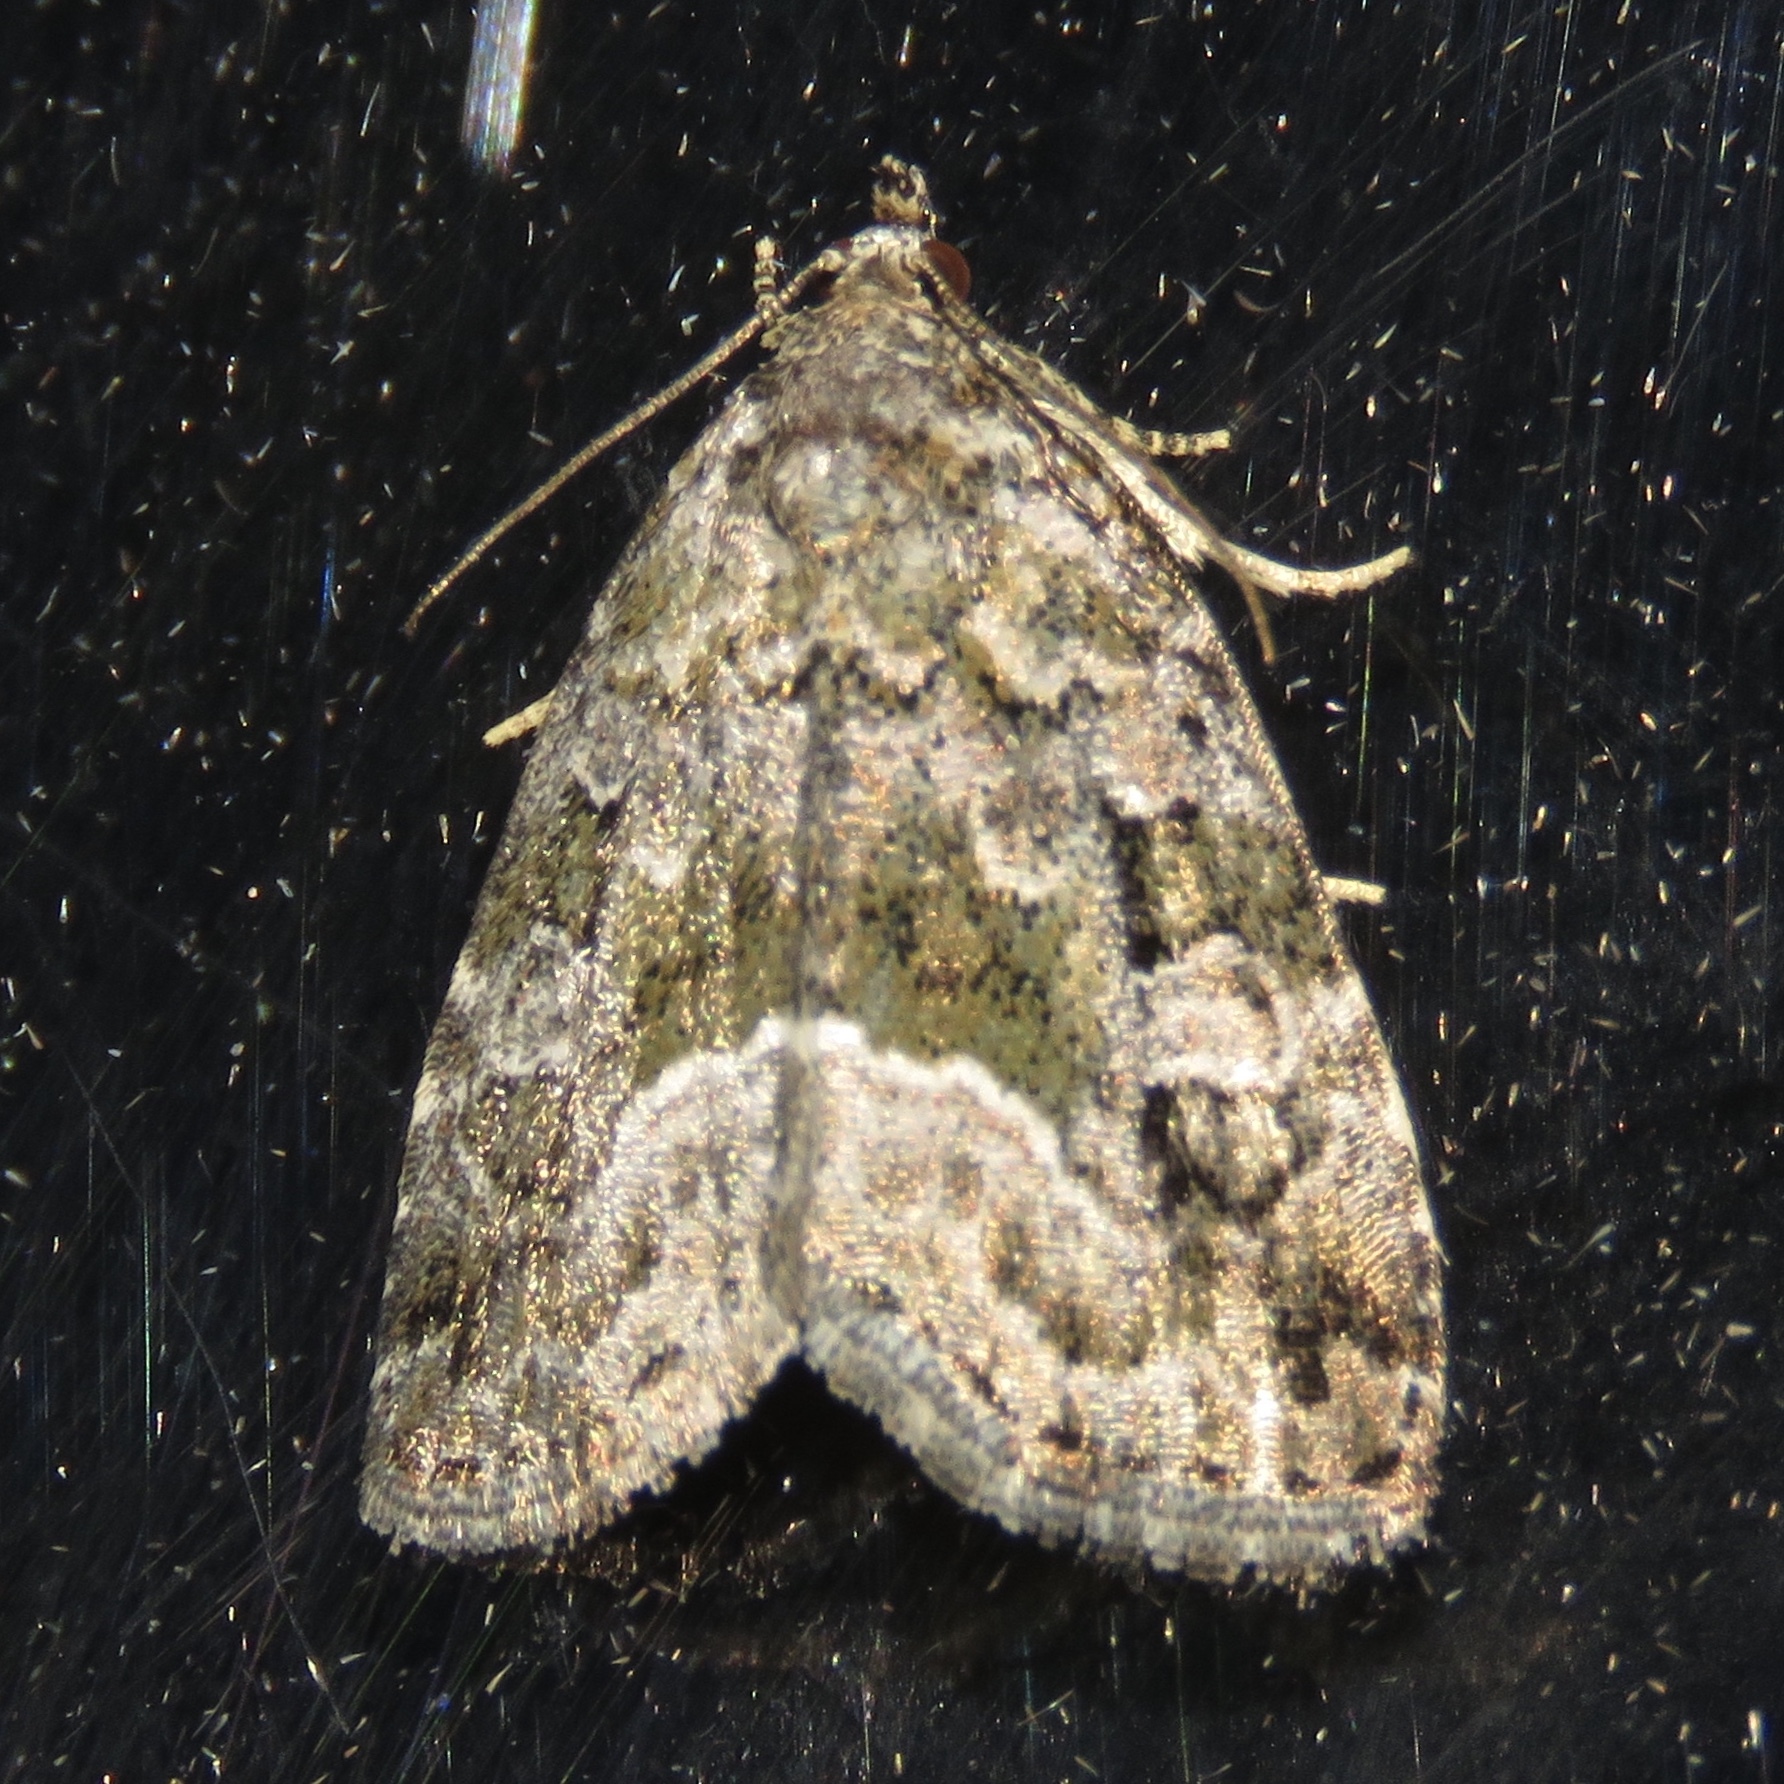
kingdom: Animalia
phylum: Arthropoda
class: Insecta
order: Lepidoptera
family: Noctuidae
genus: Protodeltote
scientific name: Protodeltote muscosula
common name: Large mossy glyph
